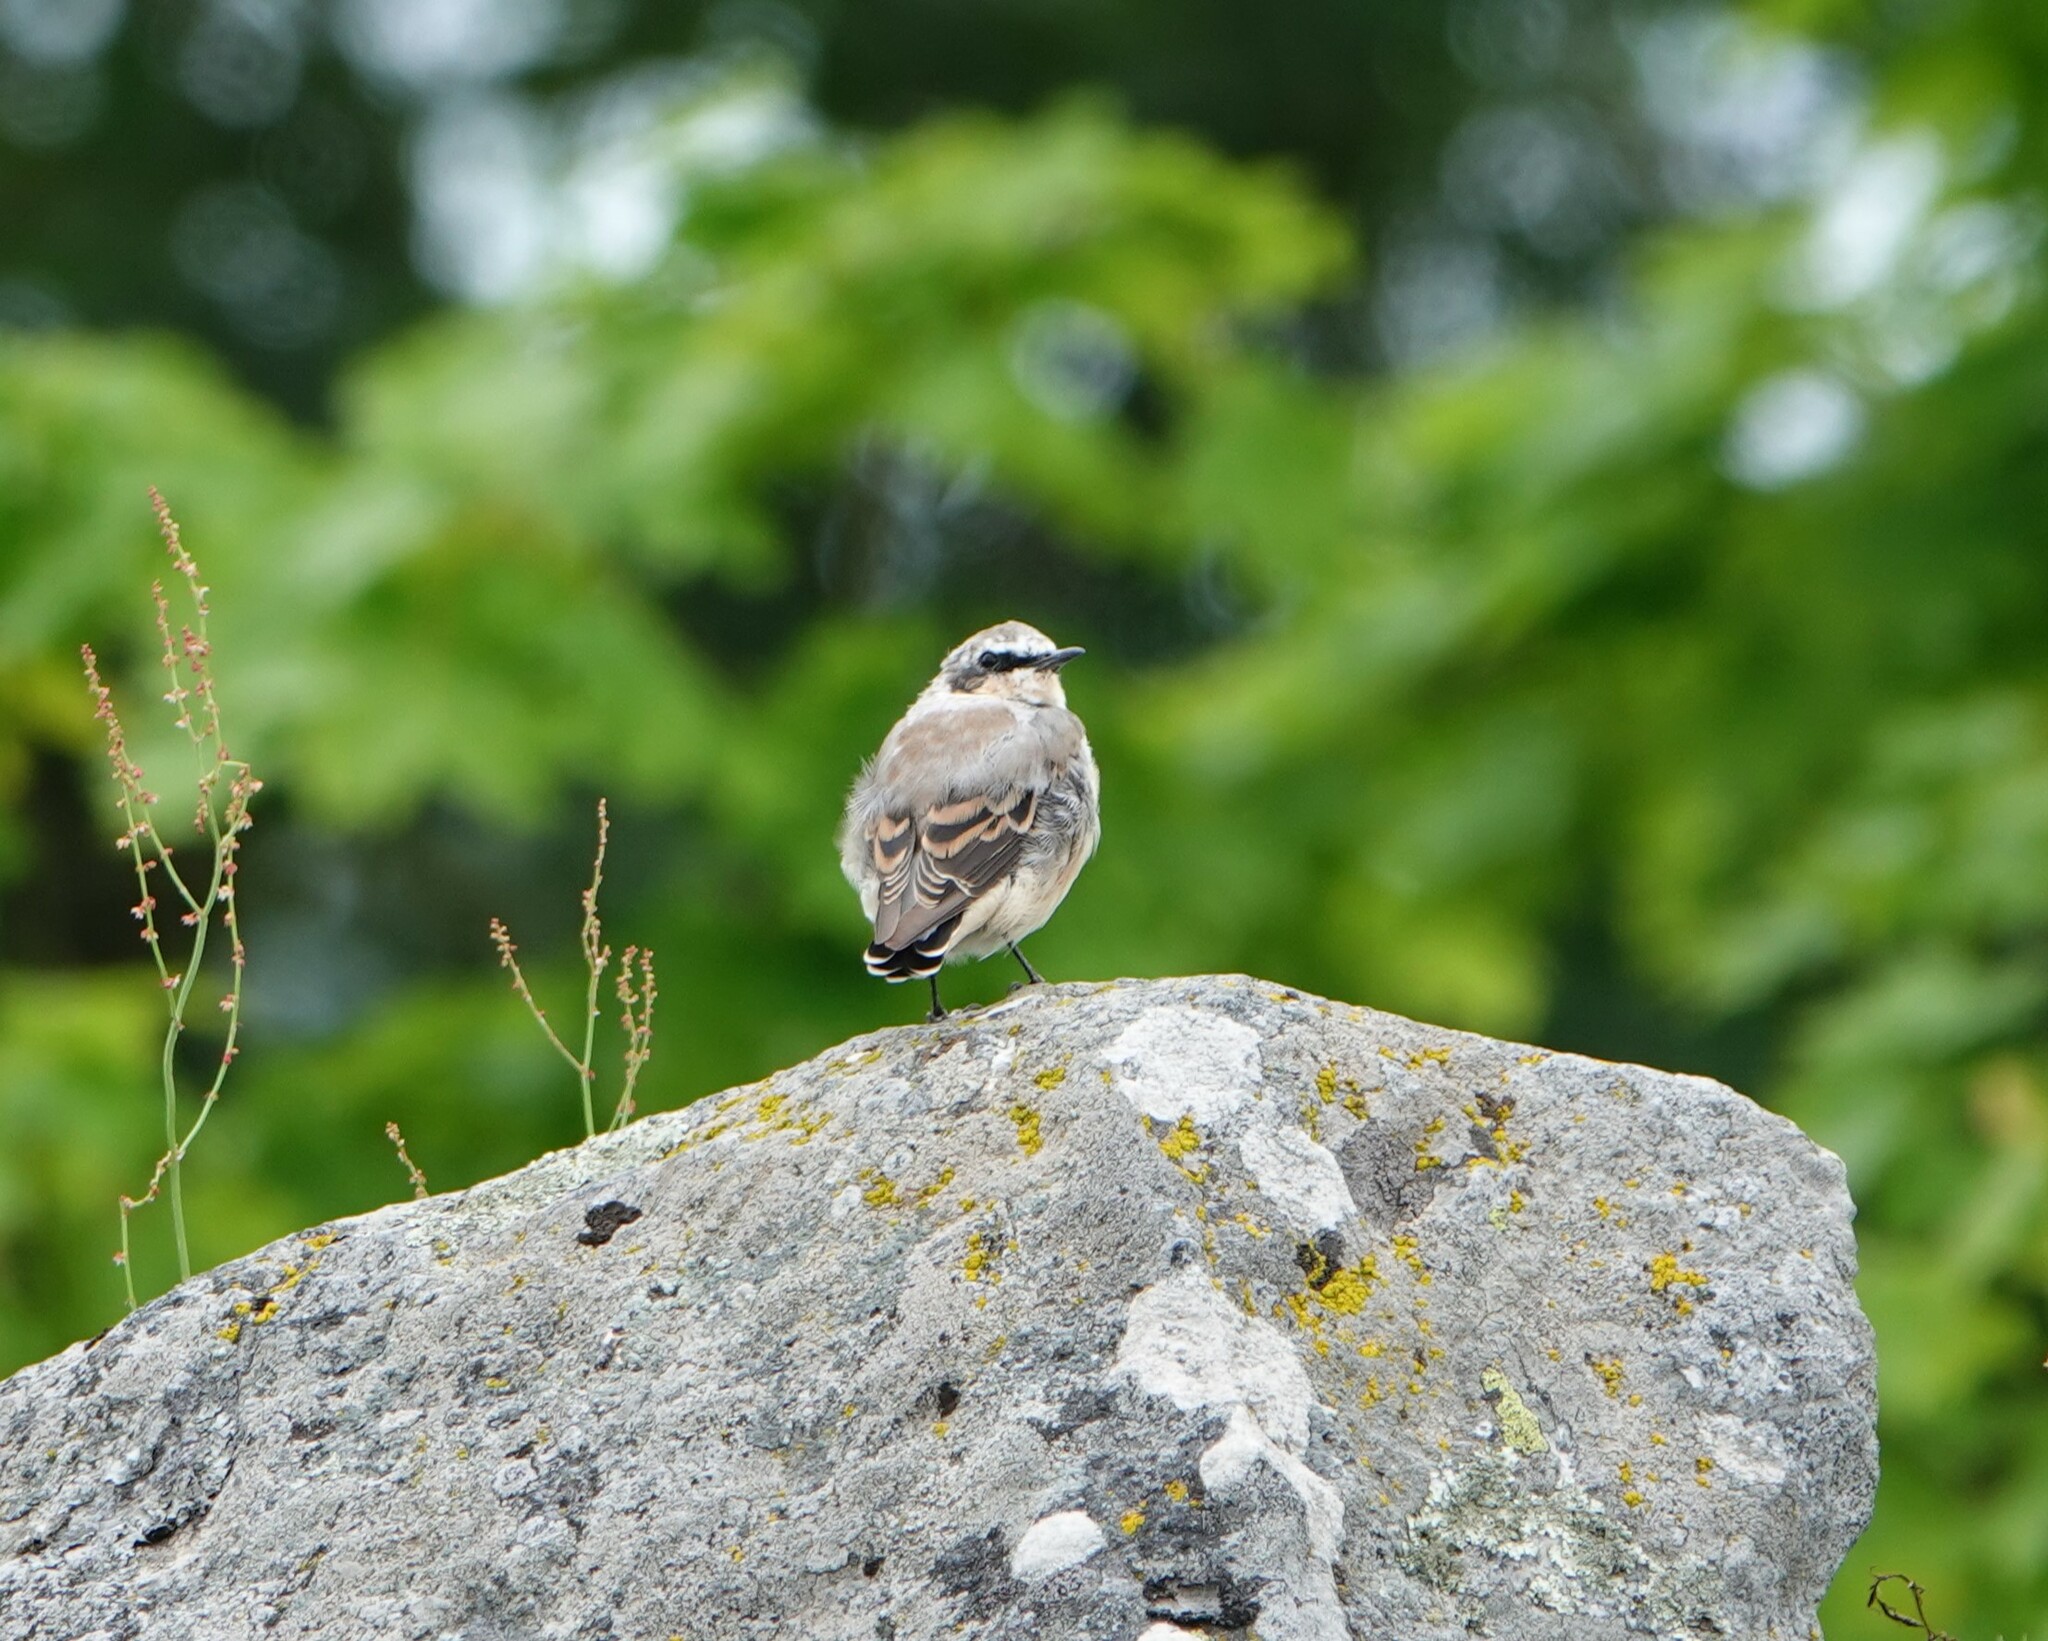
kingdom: Animalia
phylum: Chordata
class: Aves
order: Passeriformes
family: Muscicapidae
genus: Oenanthe
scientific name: Oenanthe oenanthe
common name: Northern wheatear
